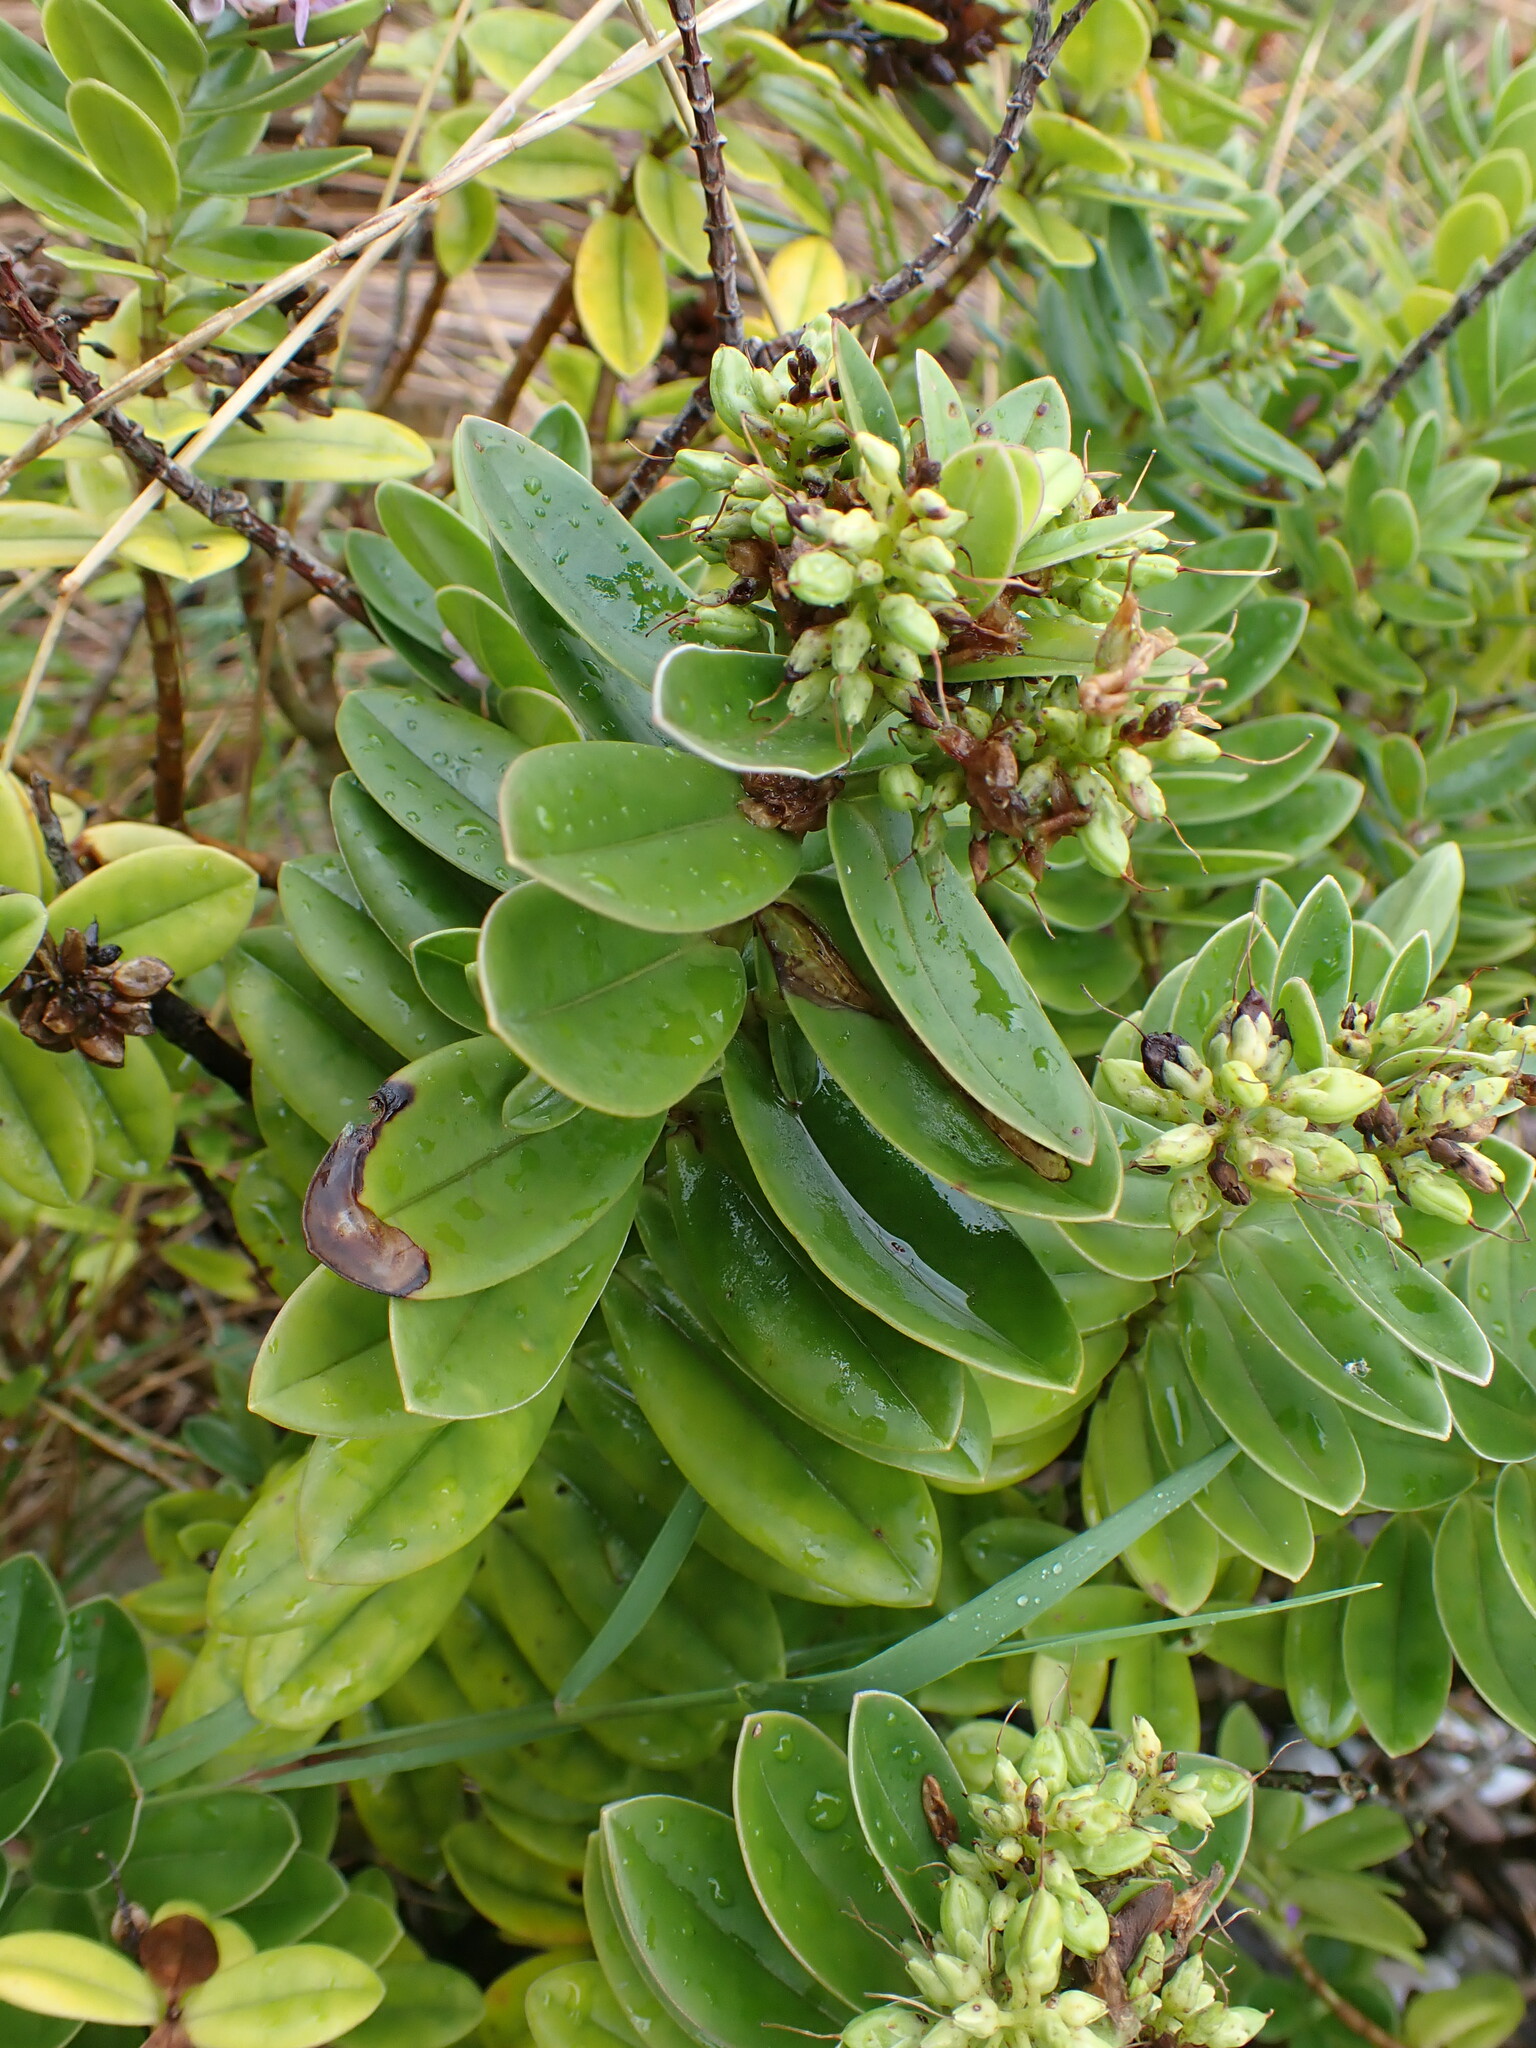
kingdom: Plantae
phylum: Tracheophyta
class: Magnoliopsida
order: Lamiales
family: Plantaginaceae
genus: Veronica
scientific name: Veronica elliptica
